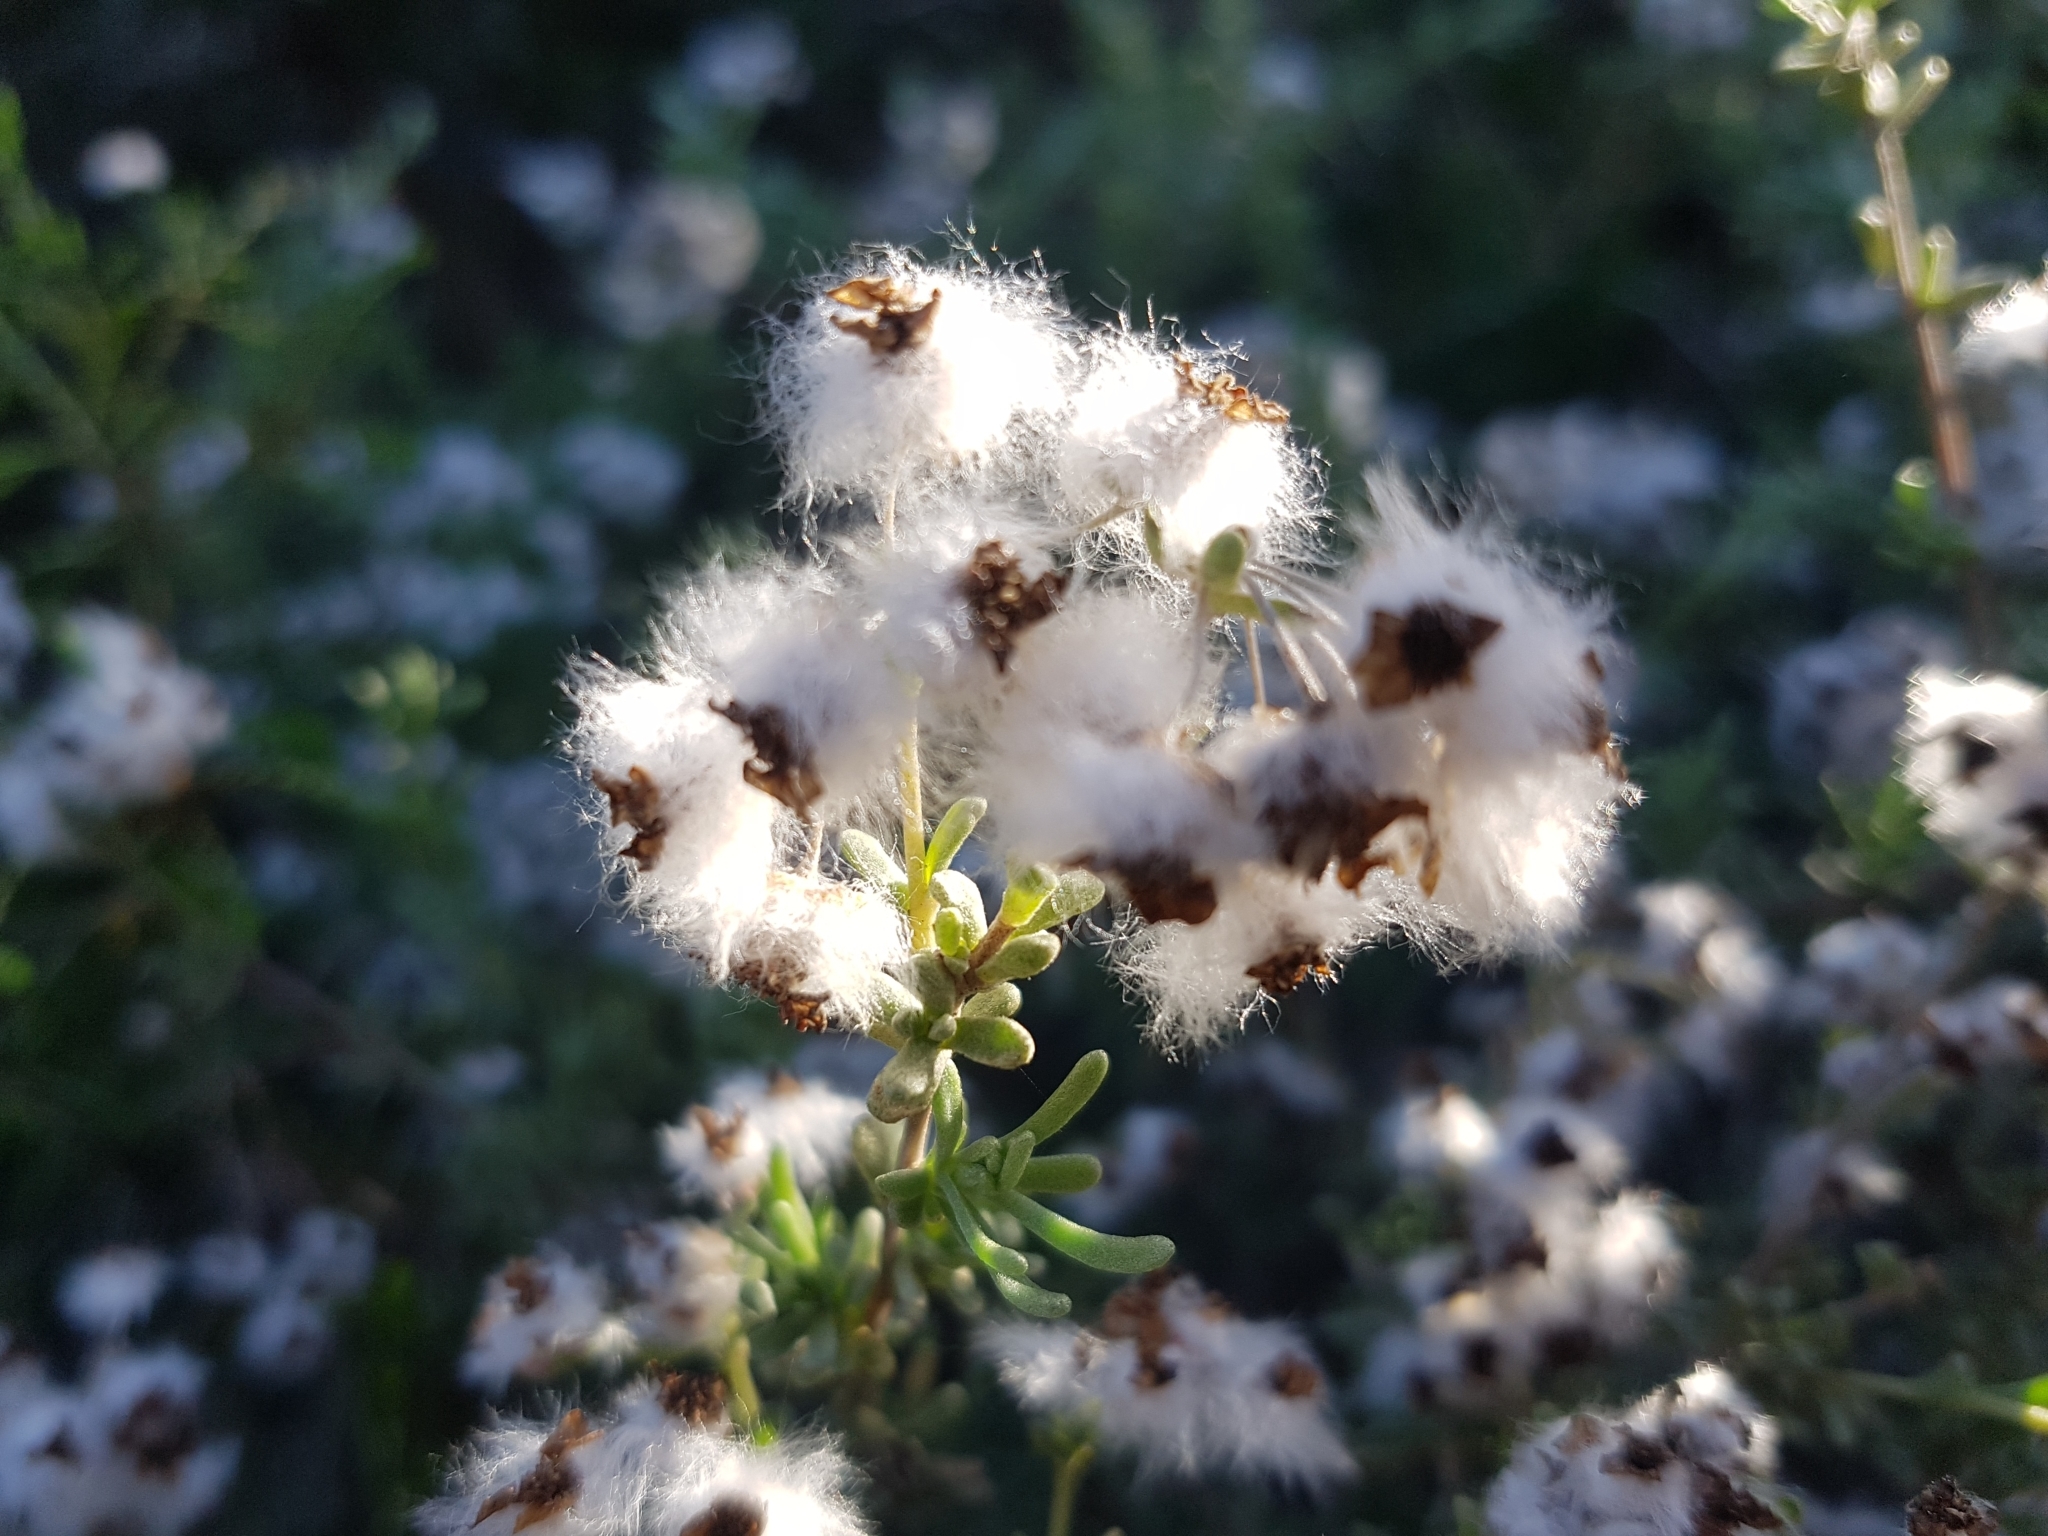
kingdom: Plantae
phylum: Tracheophyta
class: Magnoliopsida
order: Asterales
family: Asteraceae
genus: Eriocephalus
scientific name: Eriocephalus africanus
